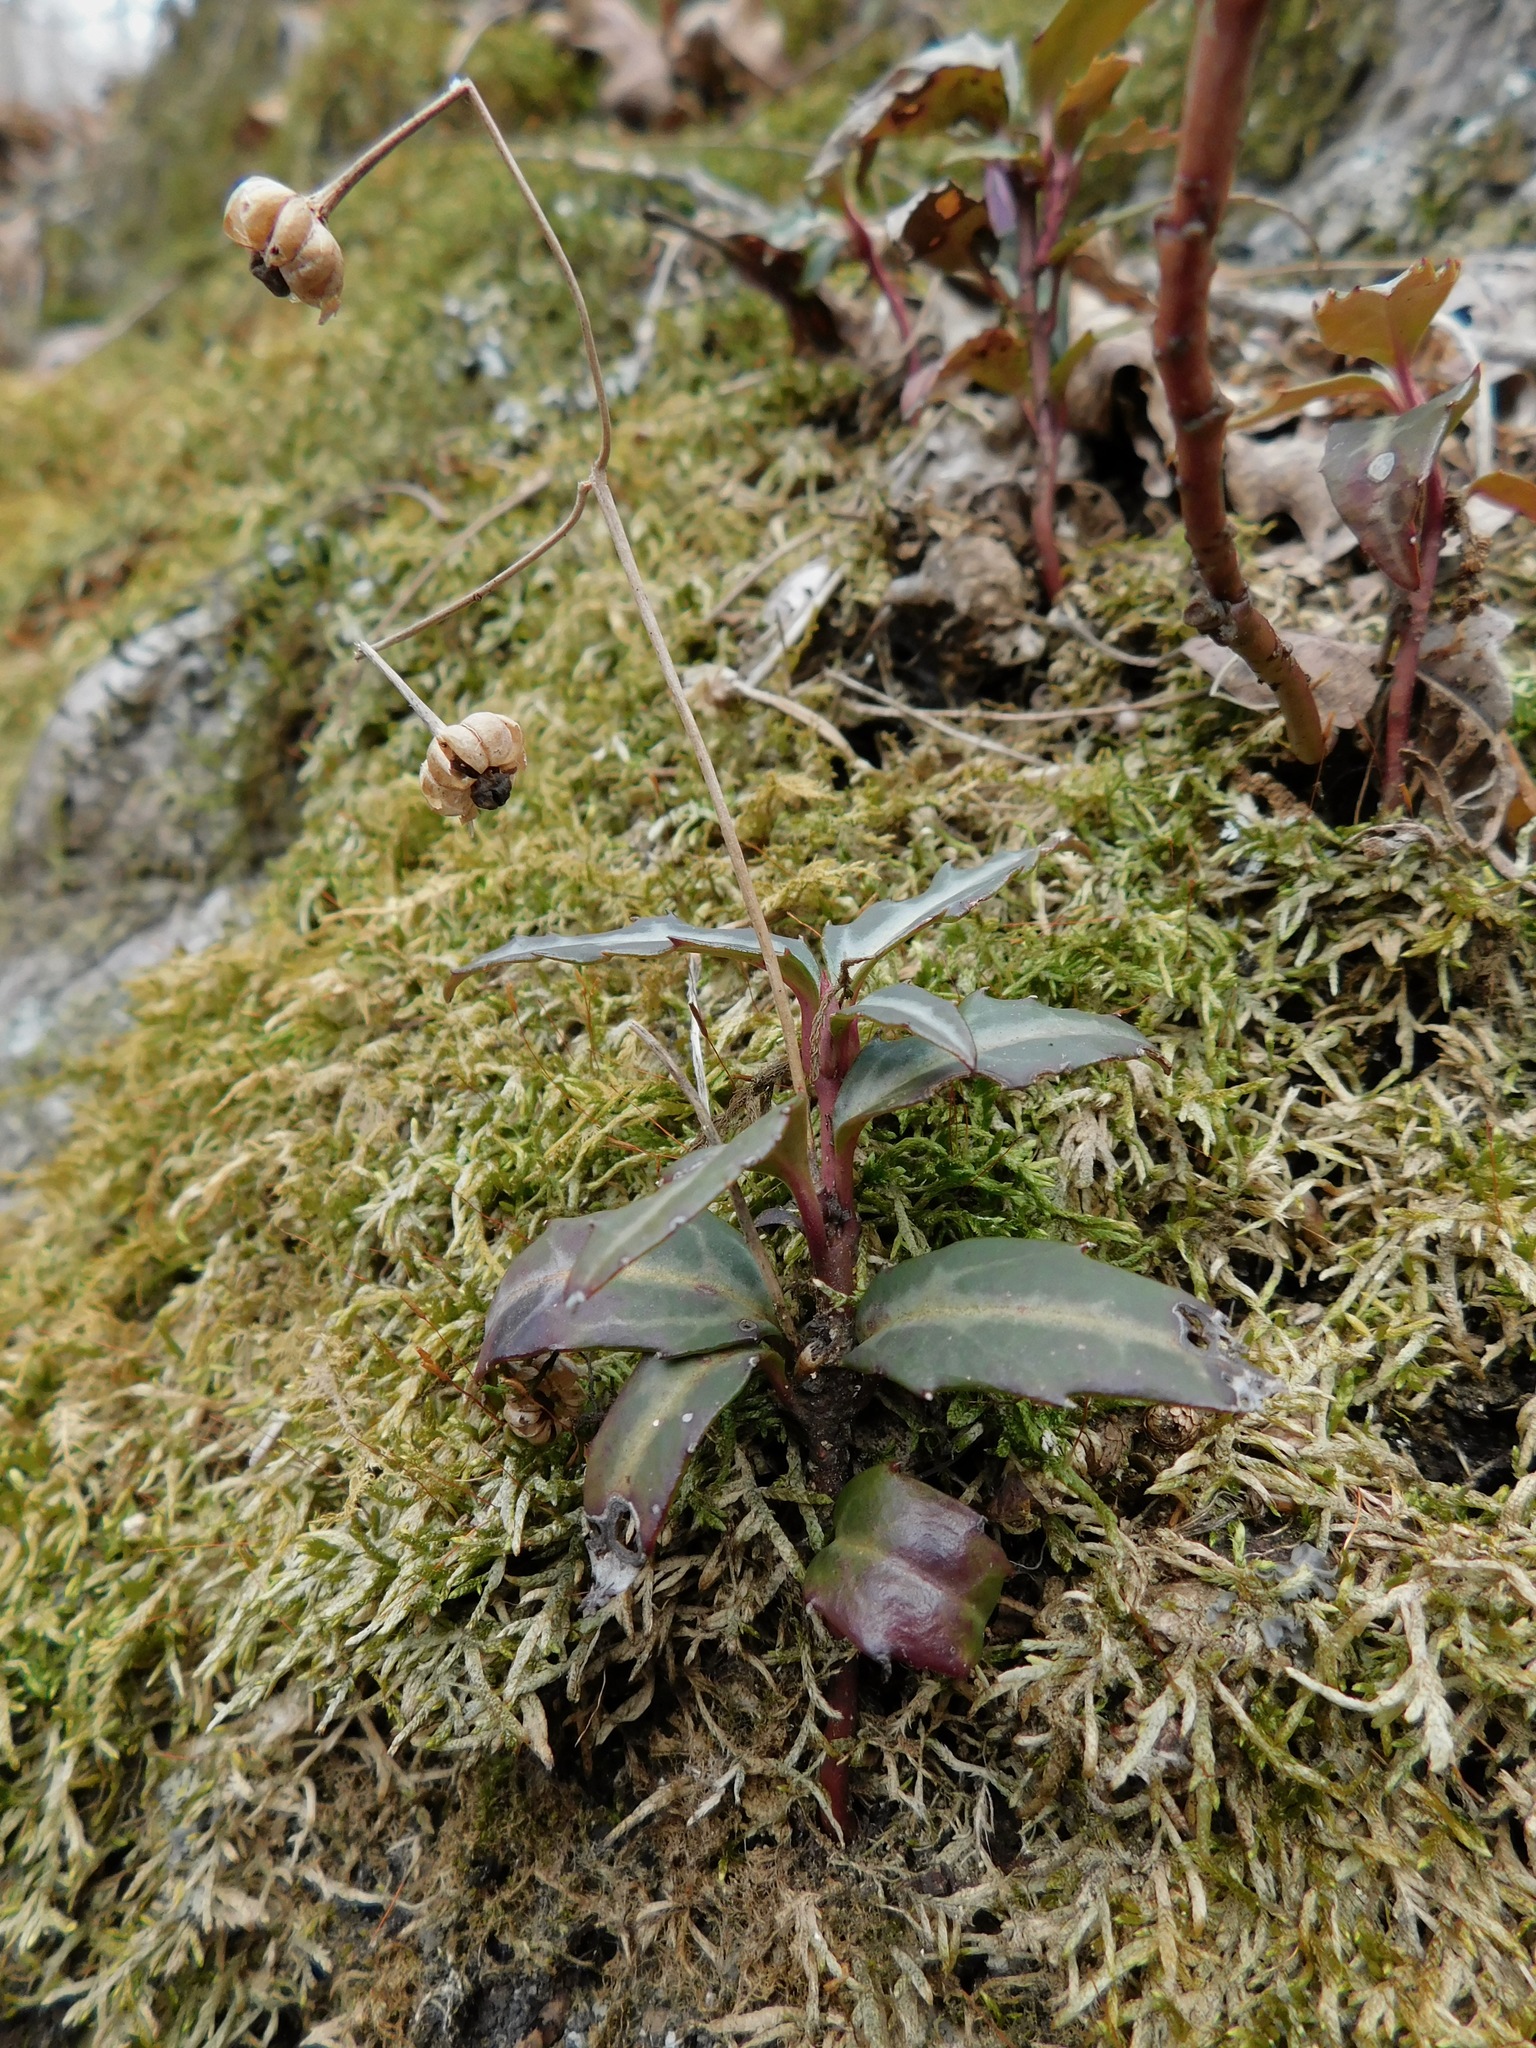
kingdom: Plantae
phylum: Tracheophyta
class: Magnoliopsida
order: Ericales
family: Ericaceae
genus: Chimaphila
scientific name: Chimaphila maculata
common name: Spotted pipsissewa
